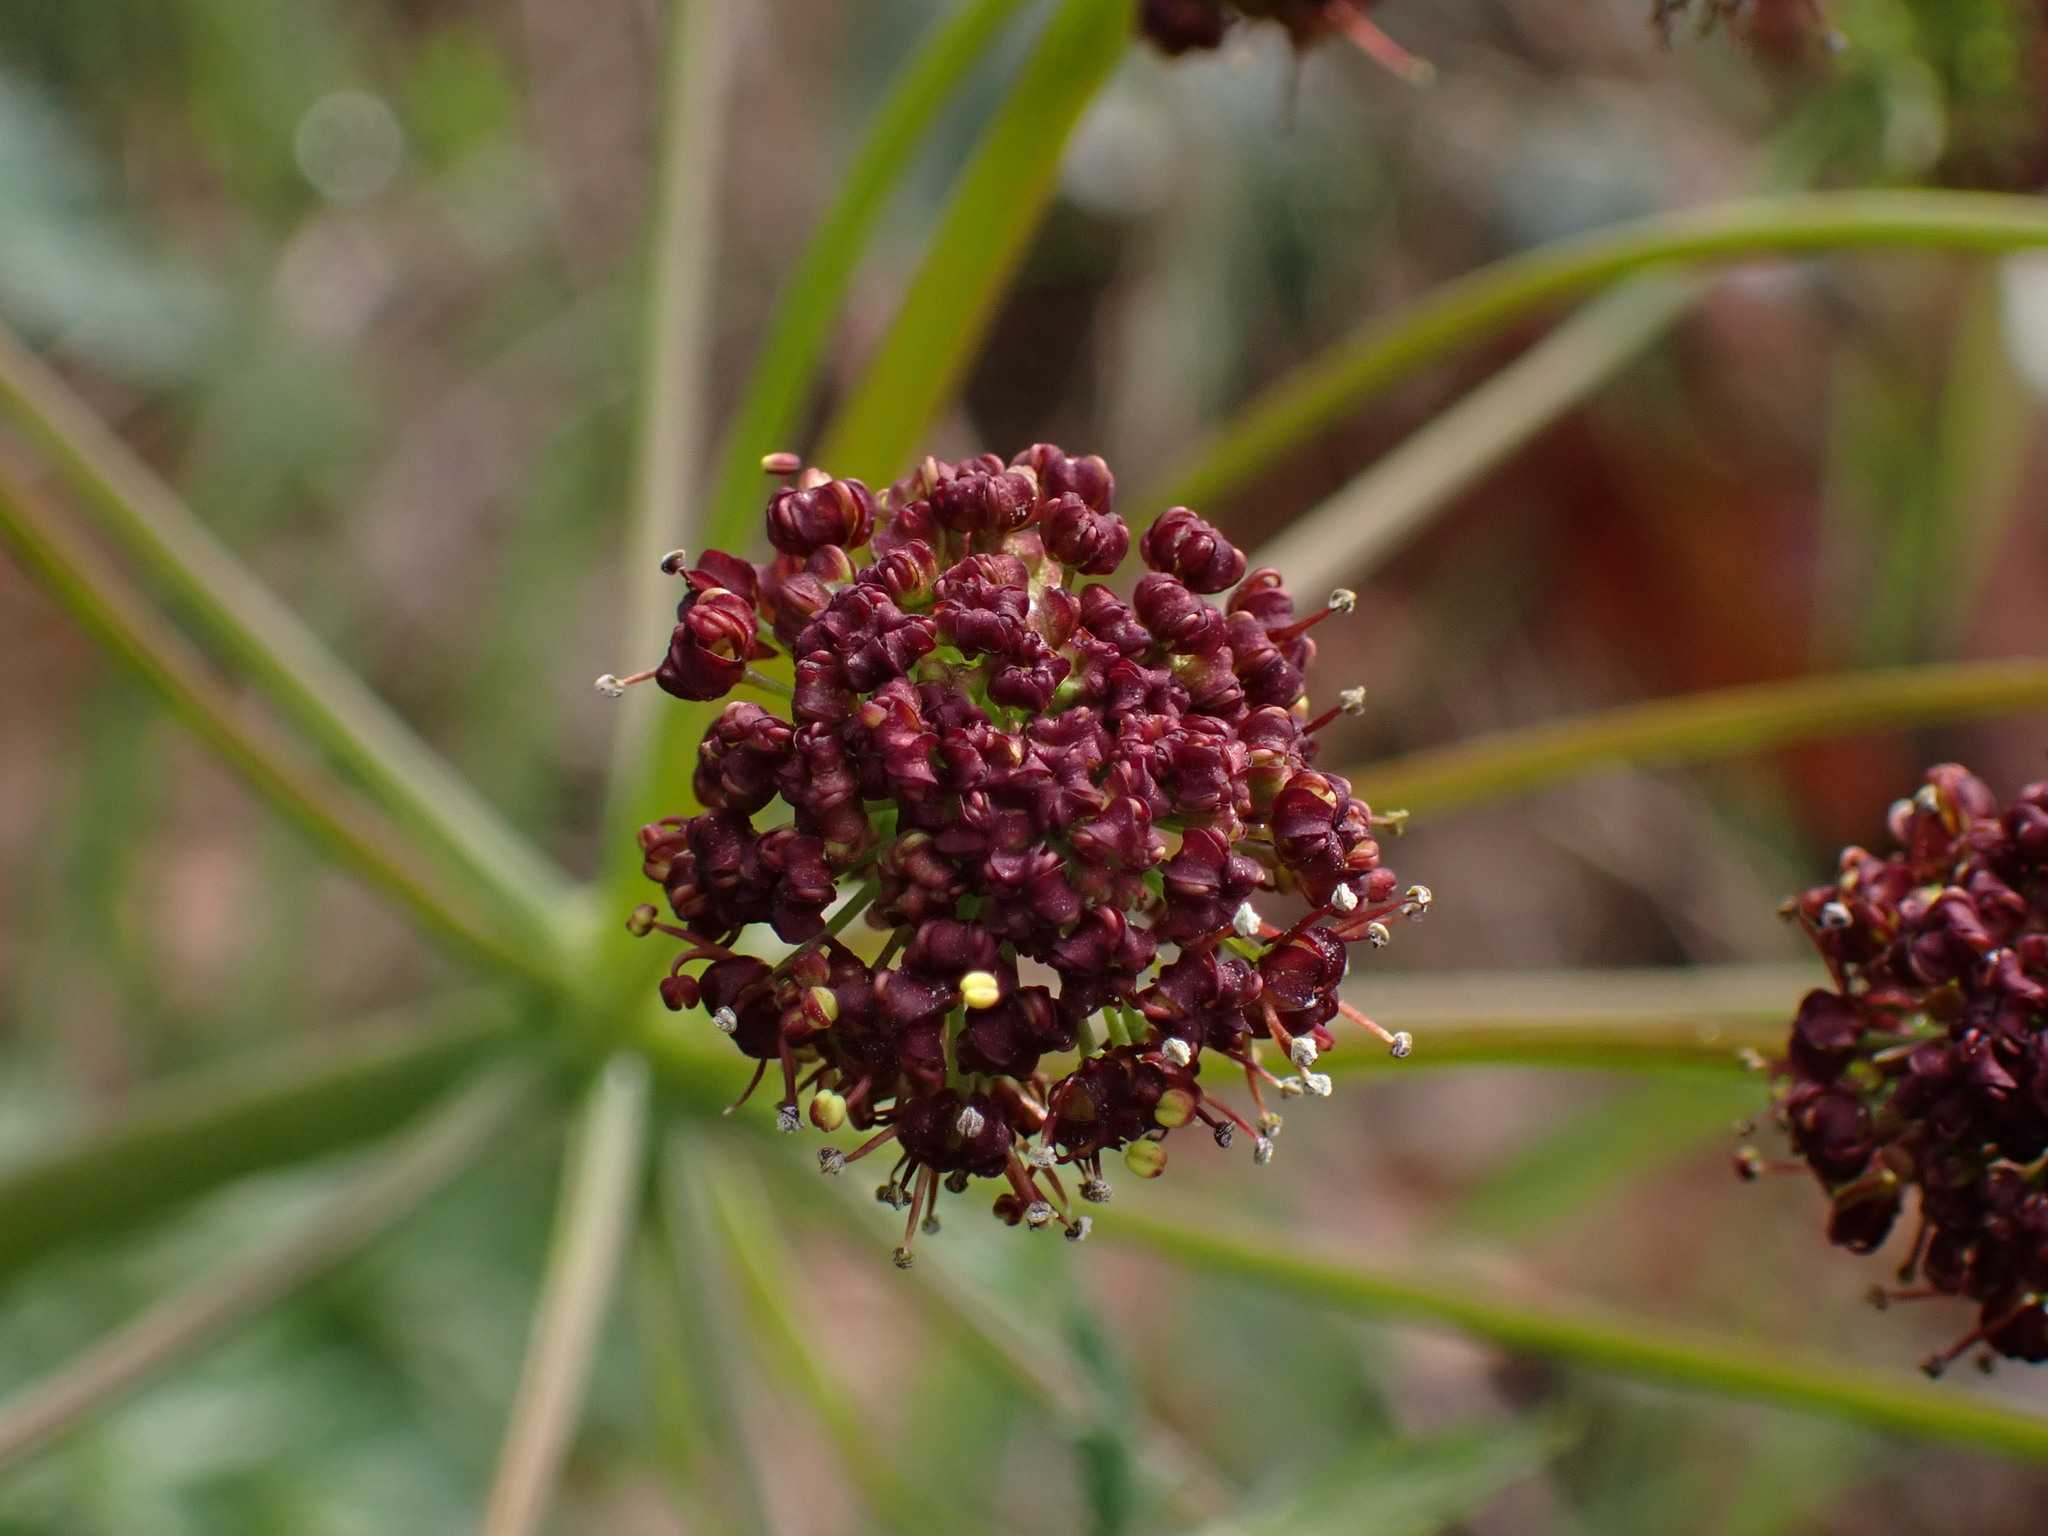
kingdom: Plantae
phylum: Tracheophyta
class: Magnoliopsida
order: Apiales
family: Apiaceae
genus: Lomatium
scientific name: Lomatium dissectum
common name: Lomatium
